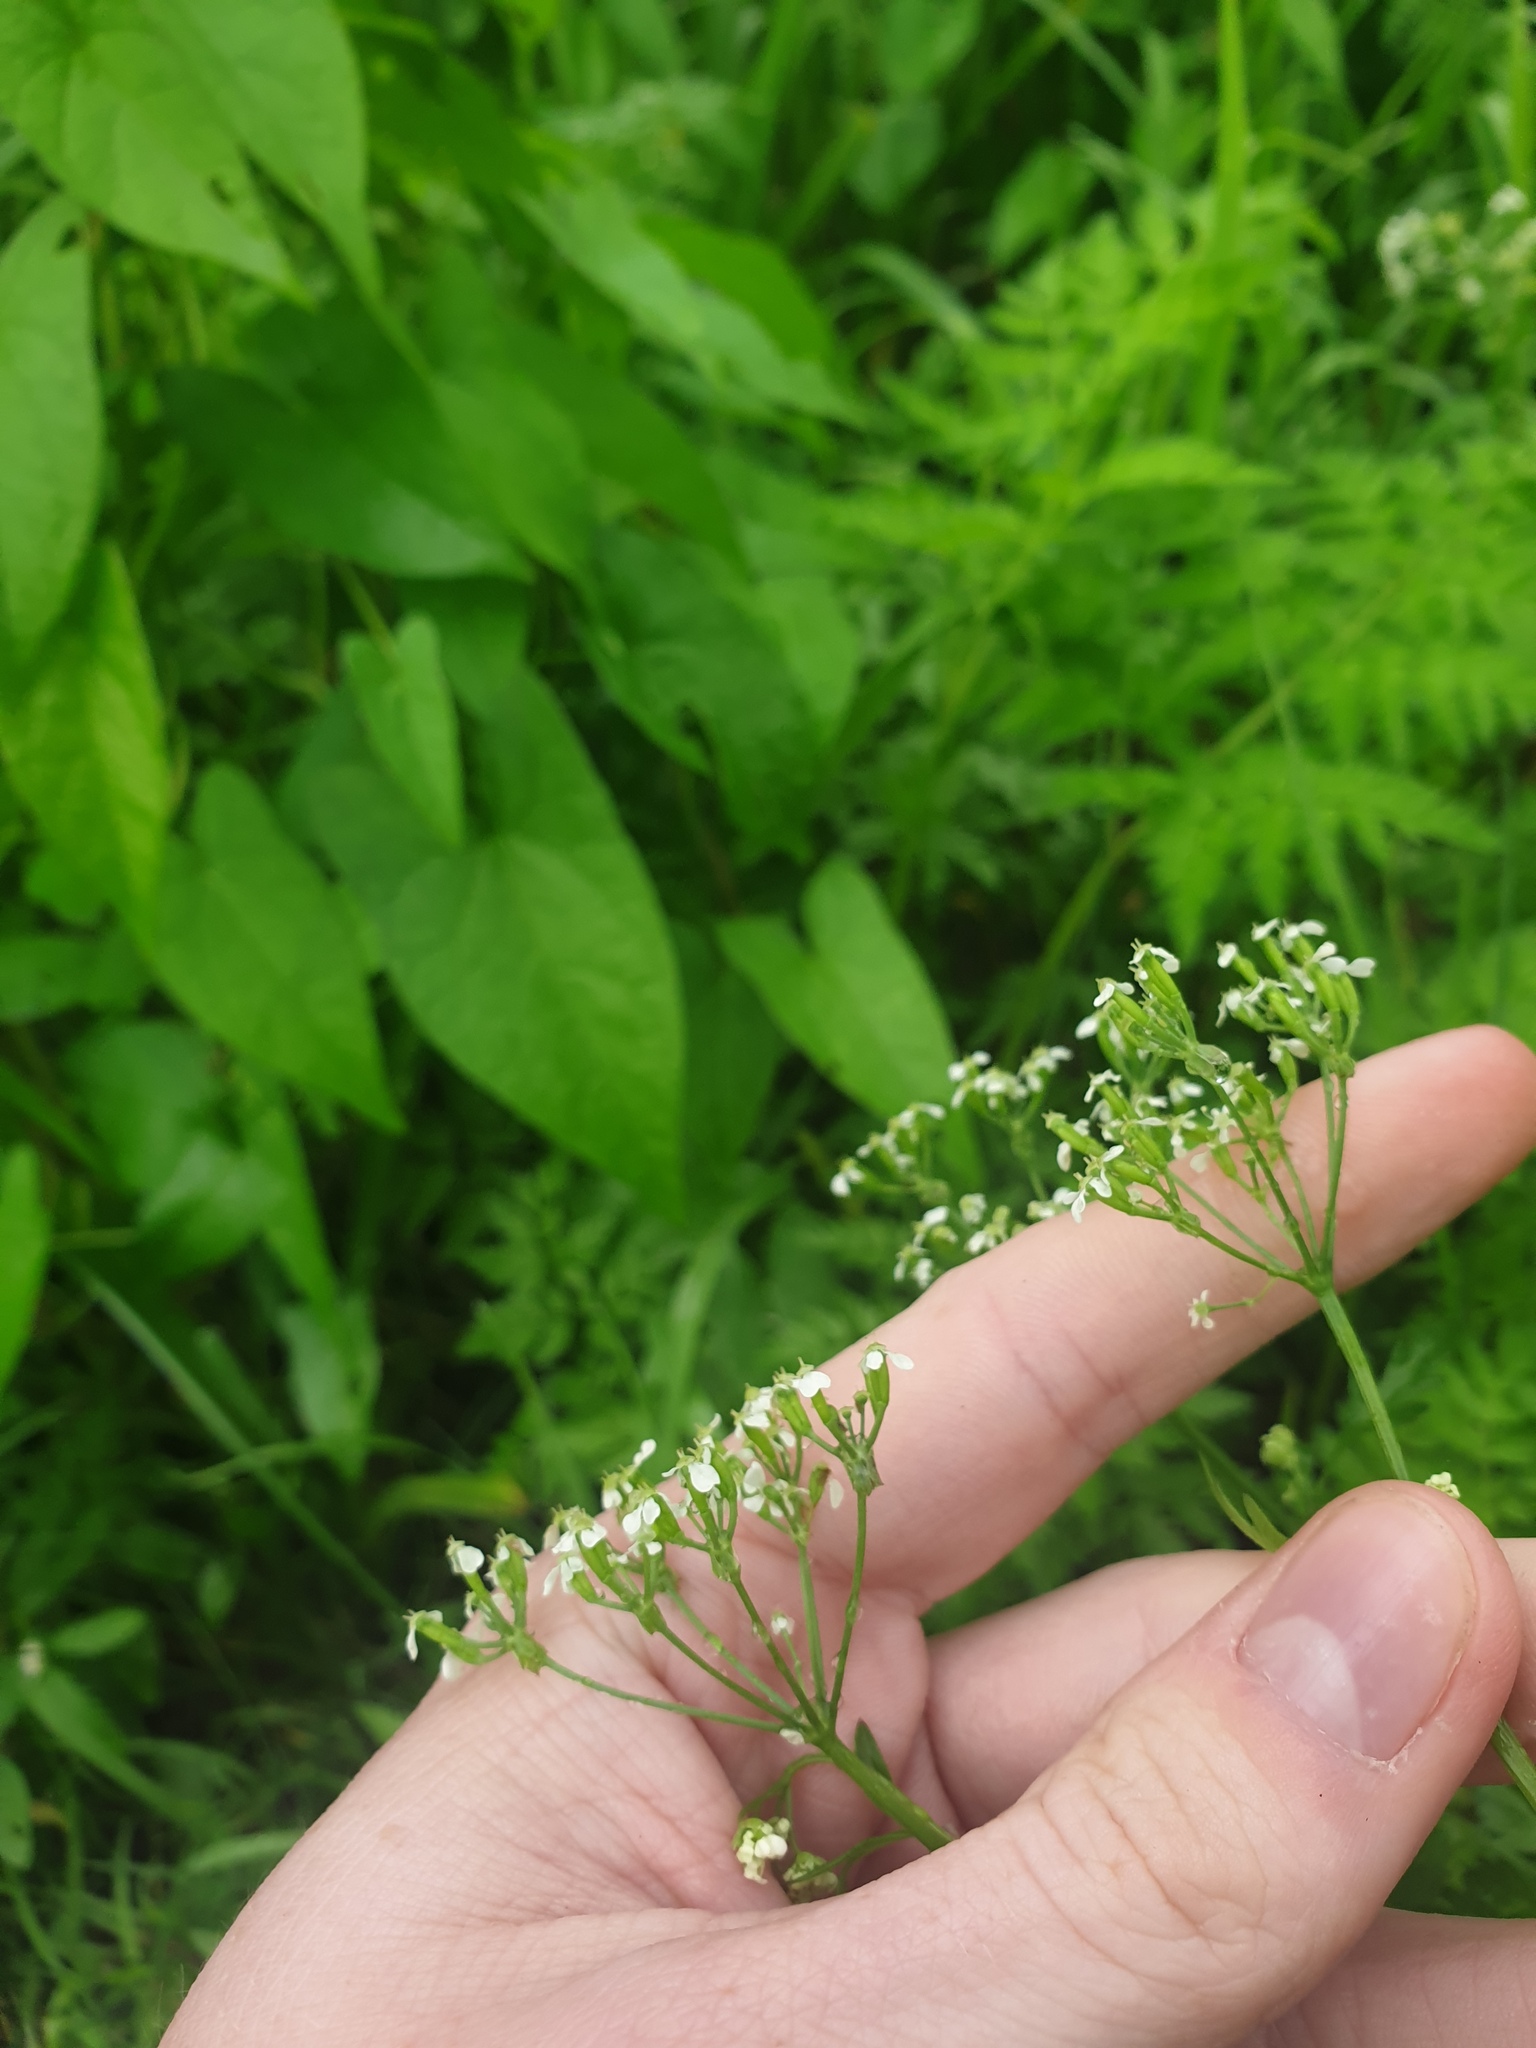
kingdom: Plantae
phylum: Tracheophyta
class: Magnoliopsida
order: Apiales
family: Apiaceae
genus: Anthriscus
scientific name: Anthriscus sylvestris
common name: Cow parsley
